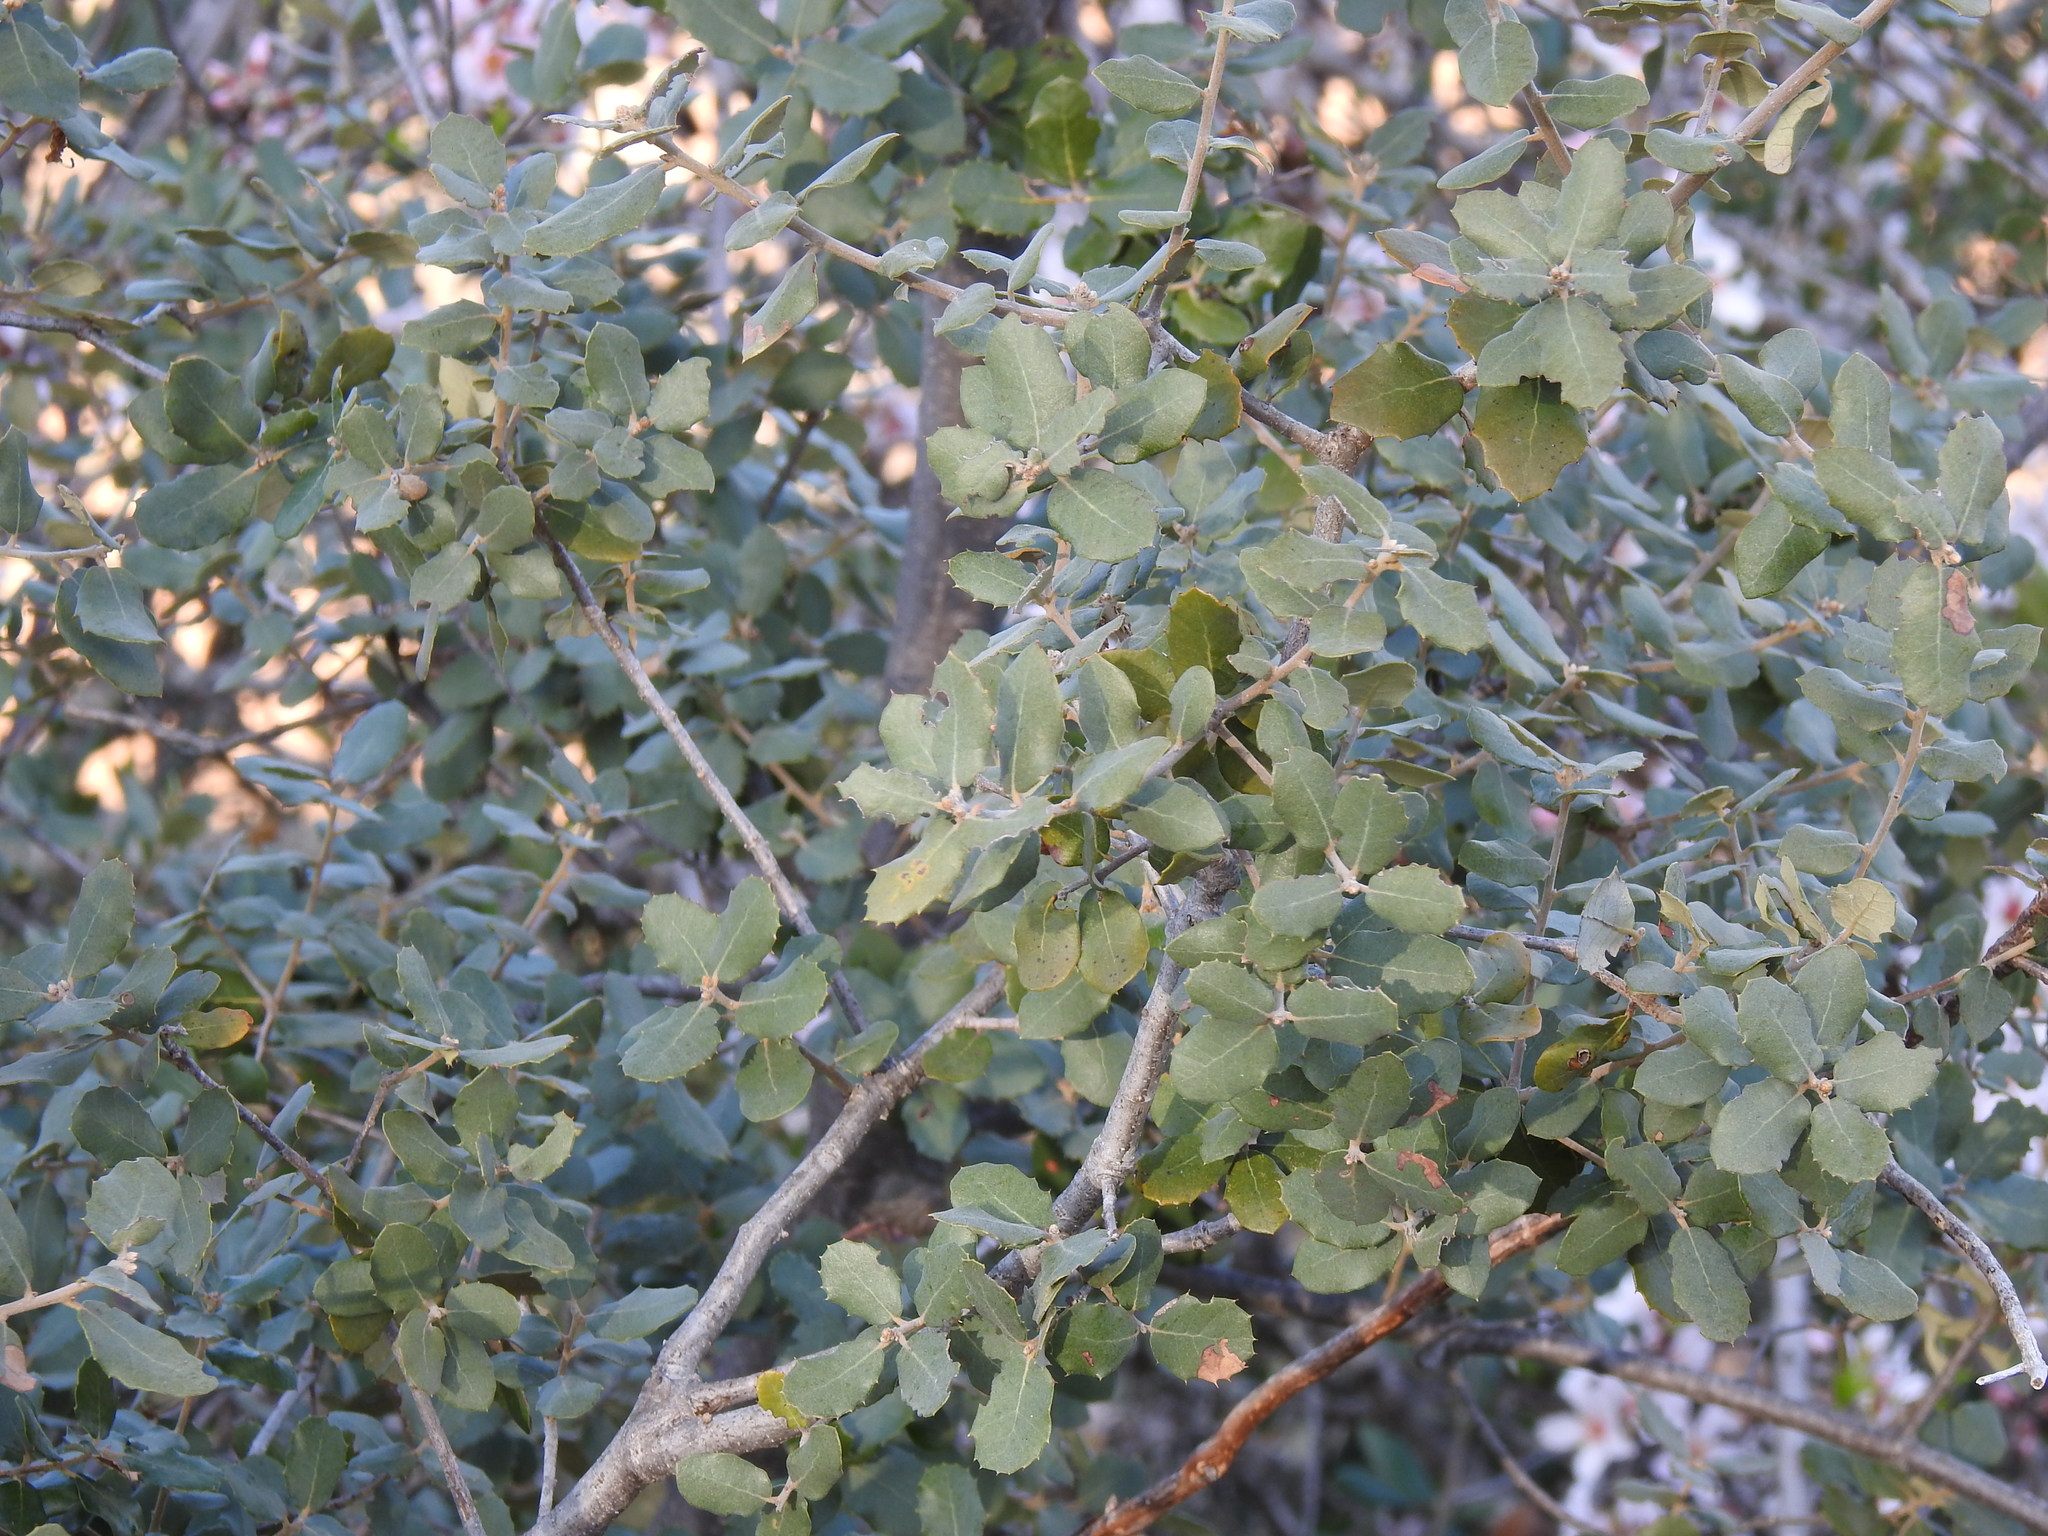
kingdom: Plantae
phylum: Tracheophyta
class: Magnoliopsida
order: Fagales
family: Fagaceae
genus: Quercus
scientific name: Quercus rotundifolia
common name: Holm oak
